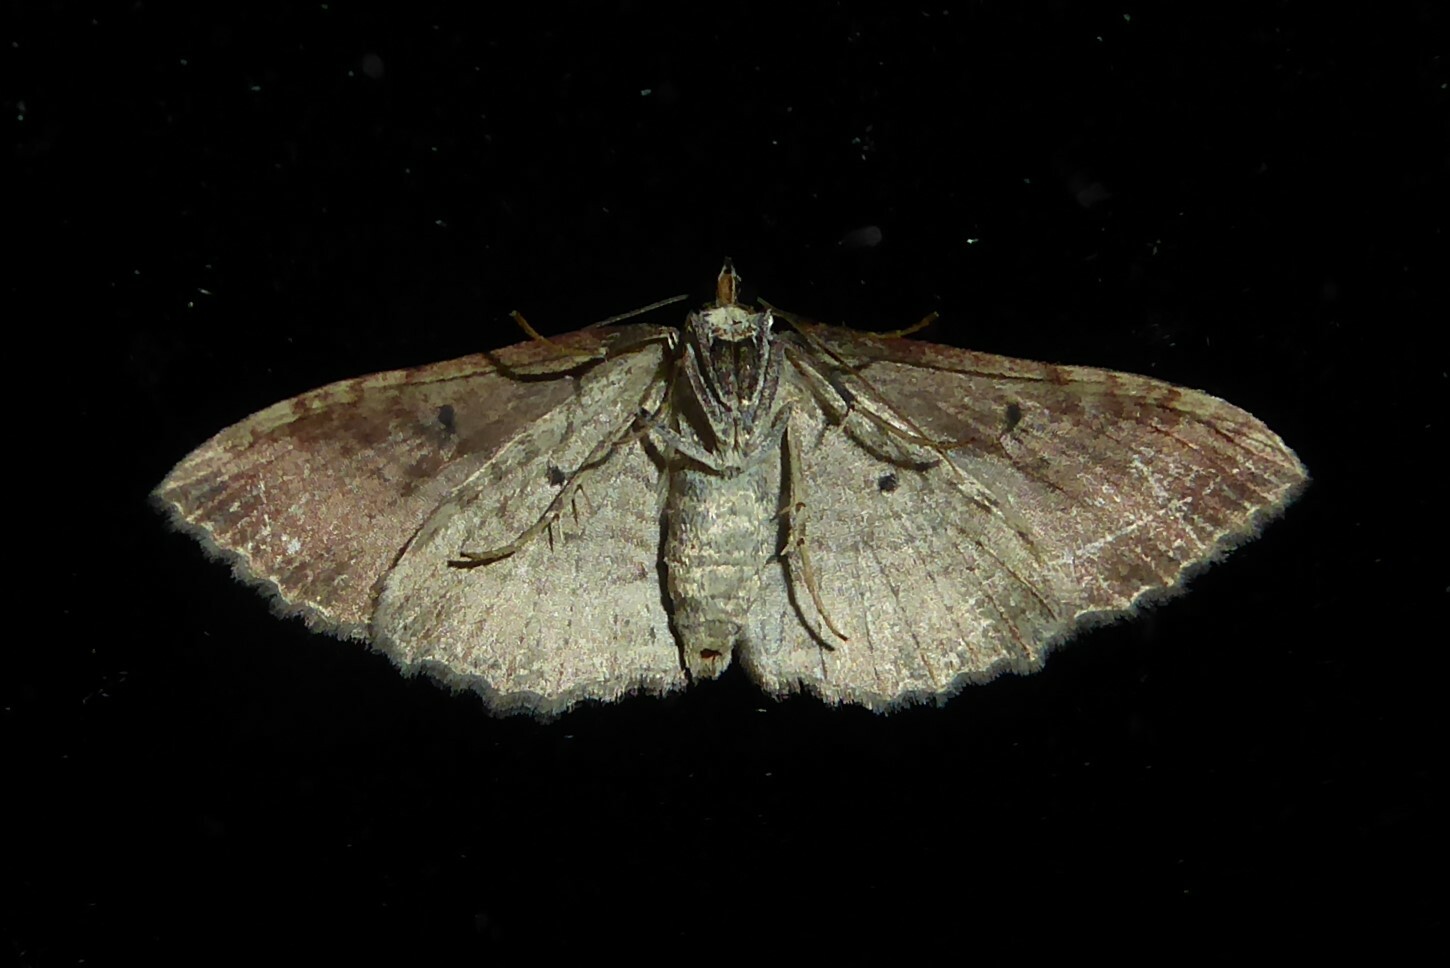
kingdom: Animalia
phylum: Arthropoda
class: Insecta
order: Lepidoptera
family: Geometridae
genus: Hydriomena
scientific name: Hydriomena deltoidata
